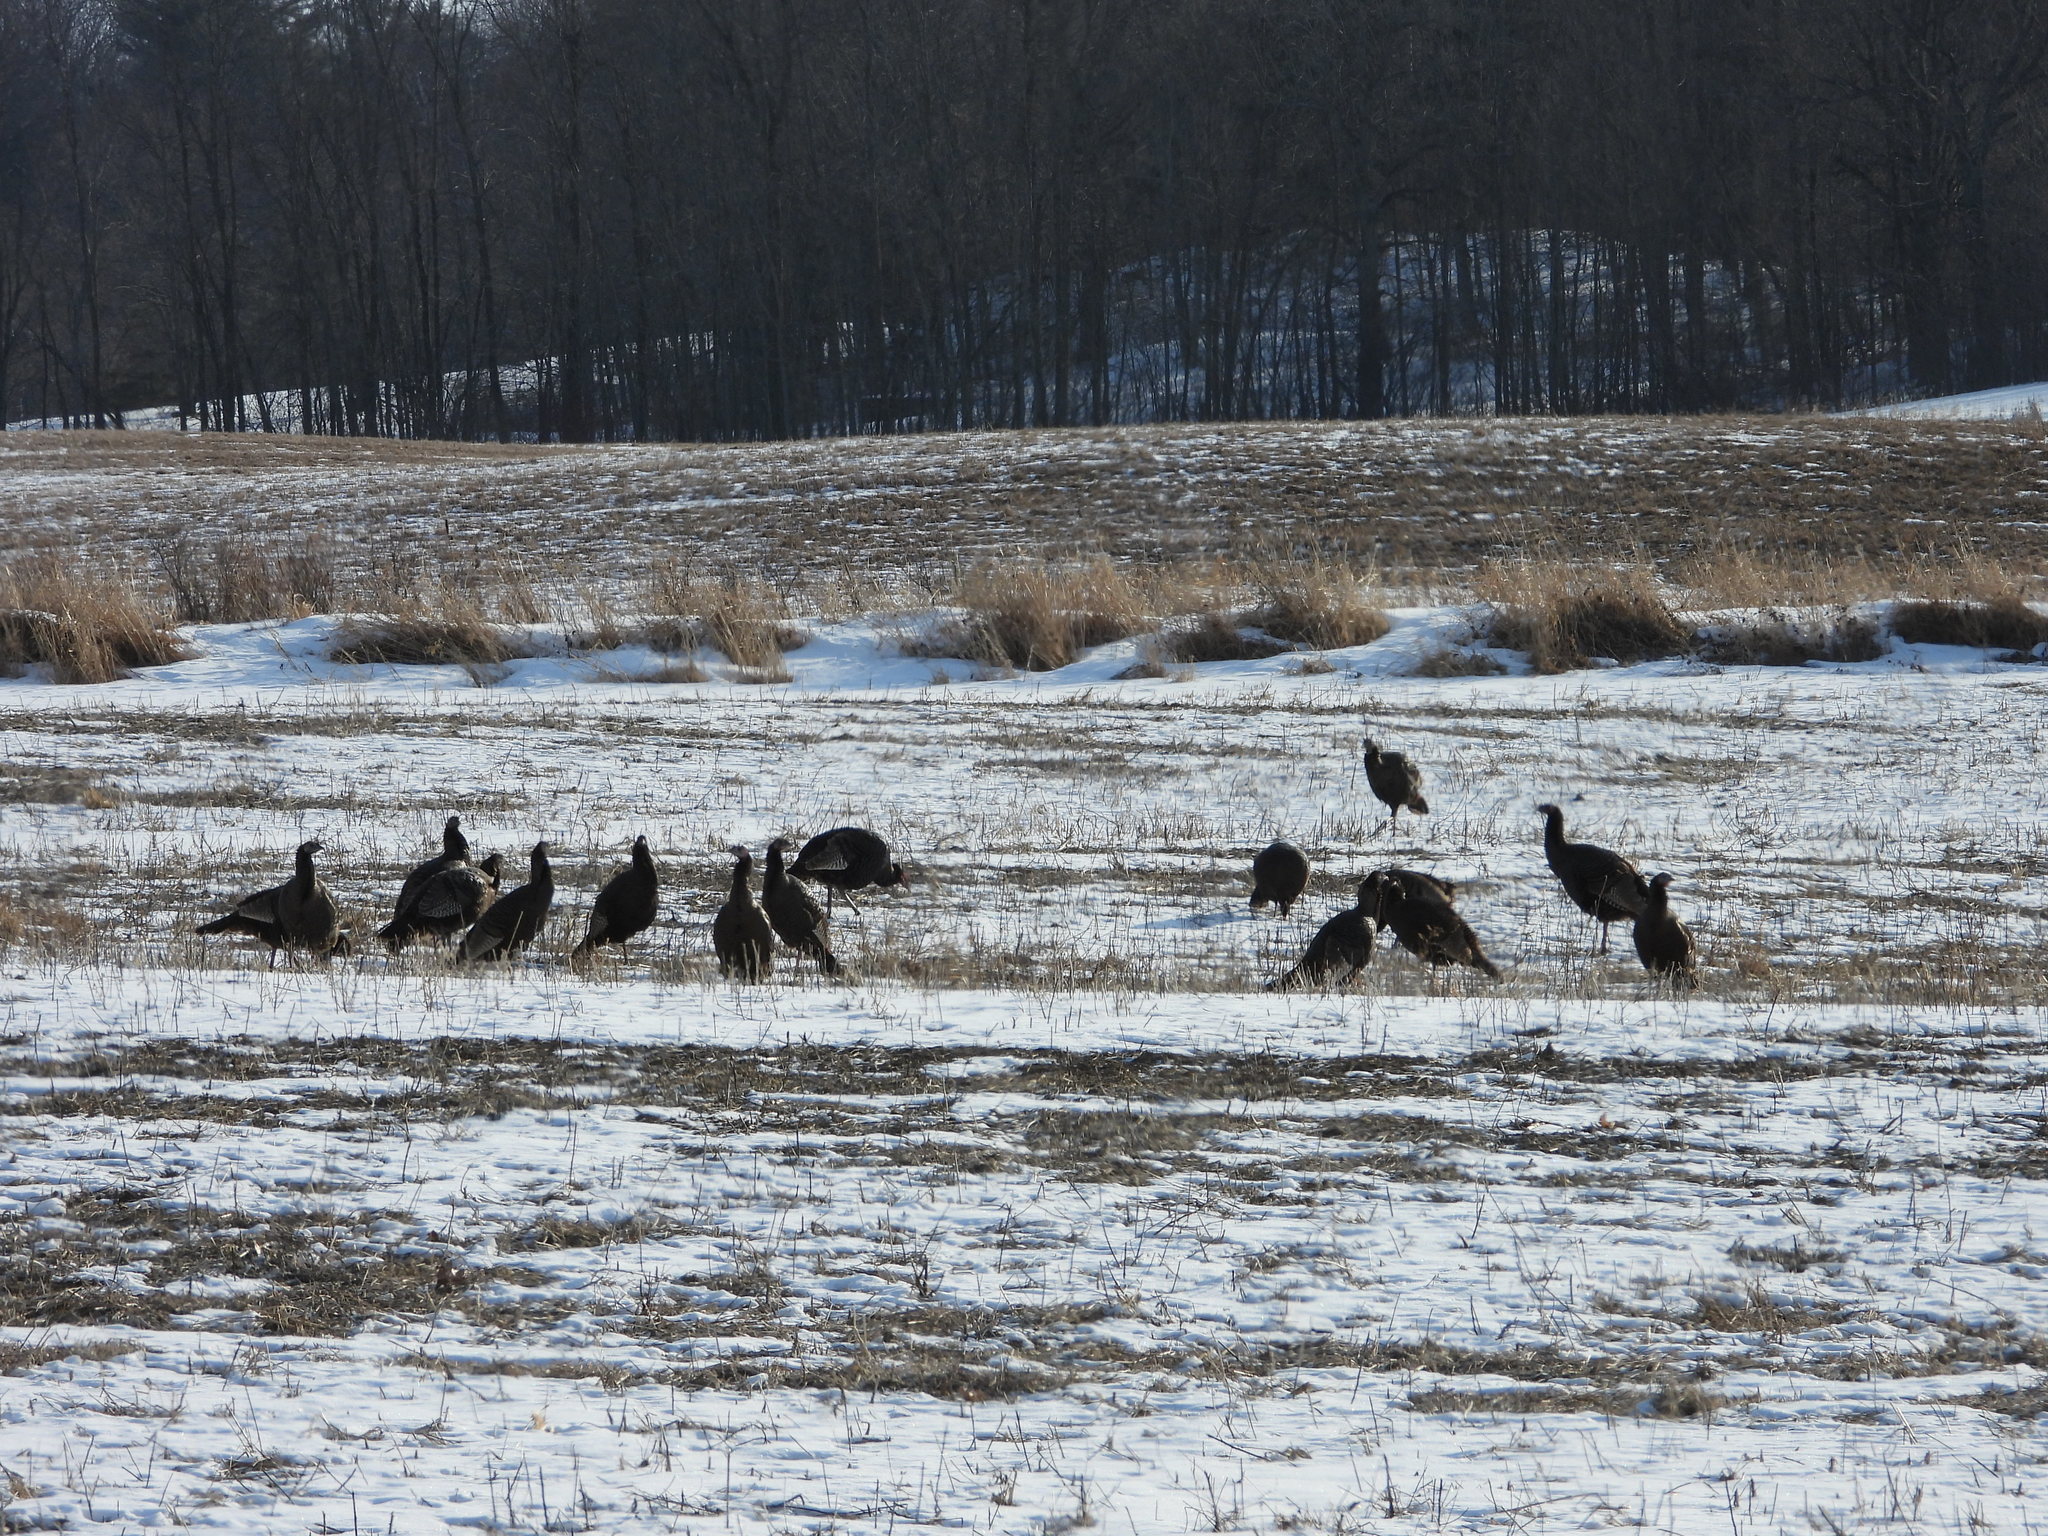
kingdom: Animalia
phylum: Chordata
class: Aves
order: Galliformes
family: Phasianidae
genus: Meleagris
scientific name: Meleagris gallopavo
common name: Wild turkey
